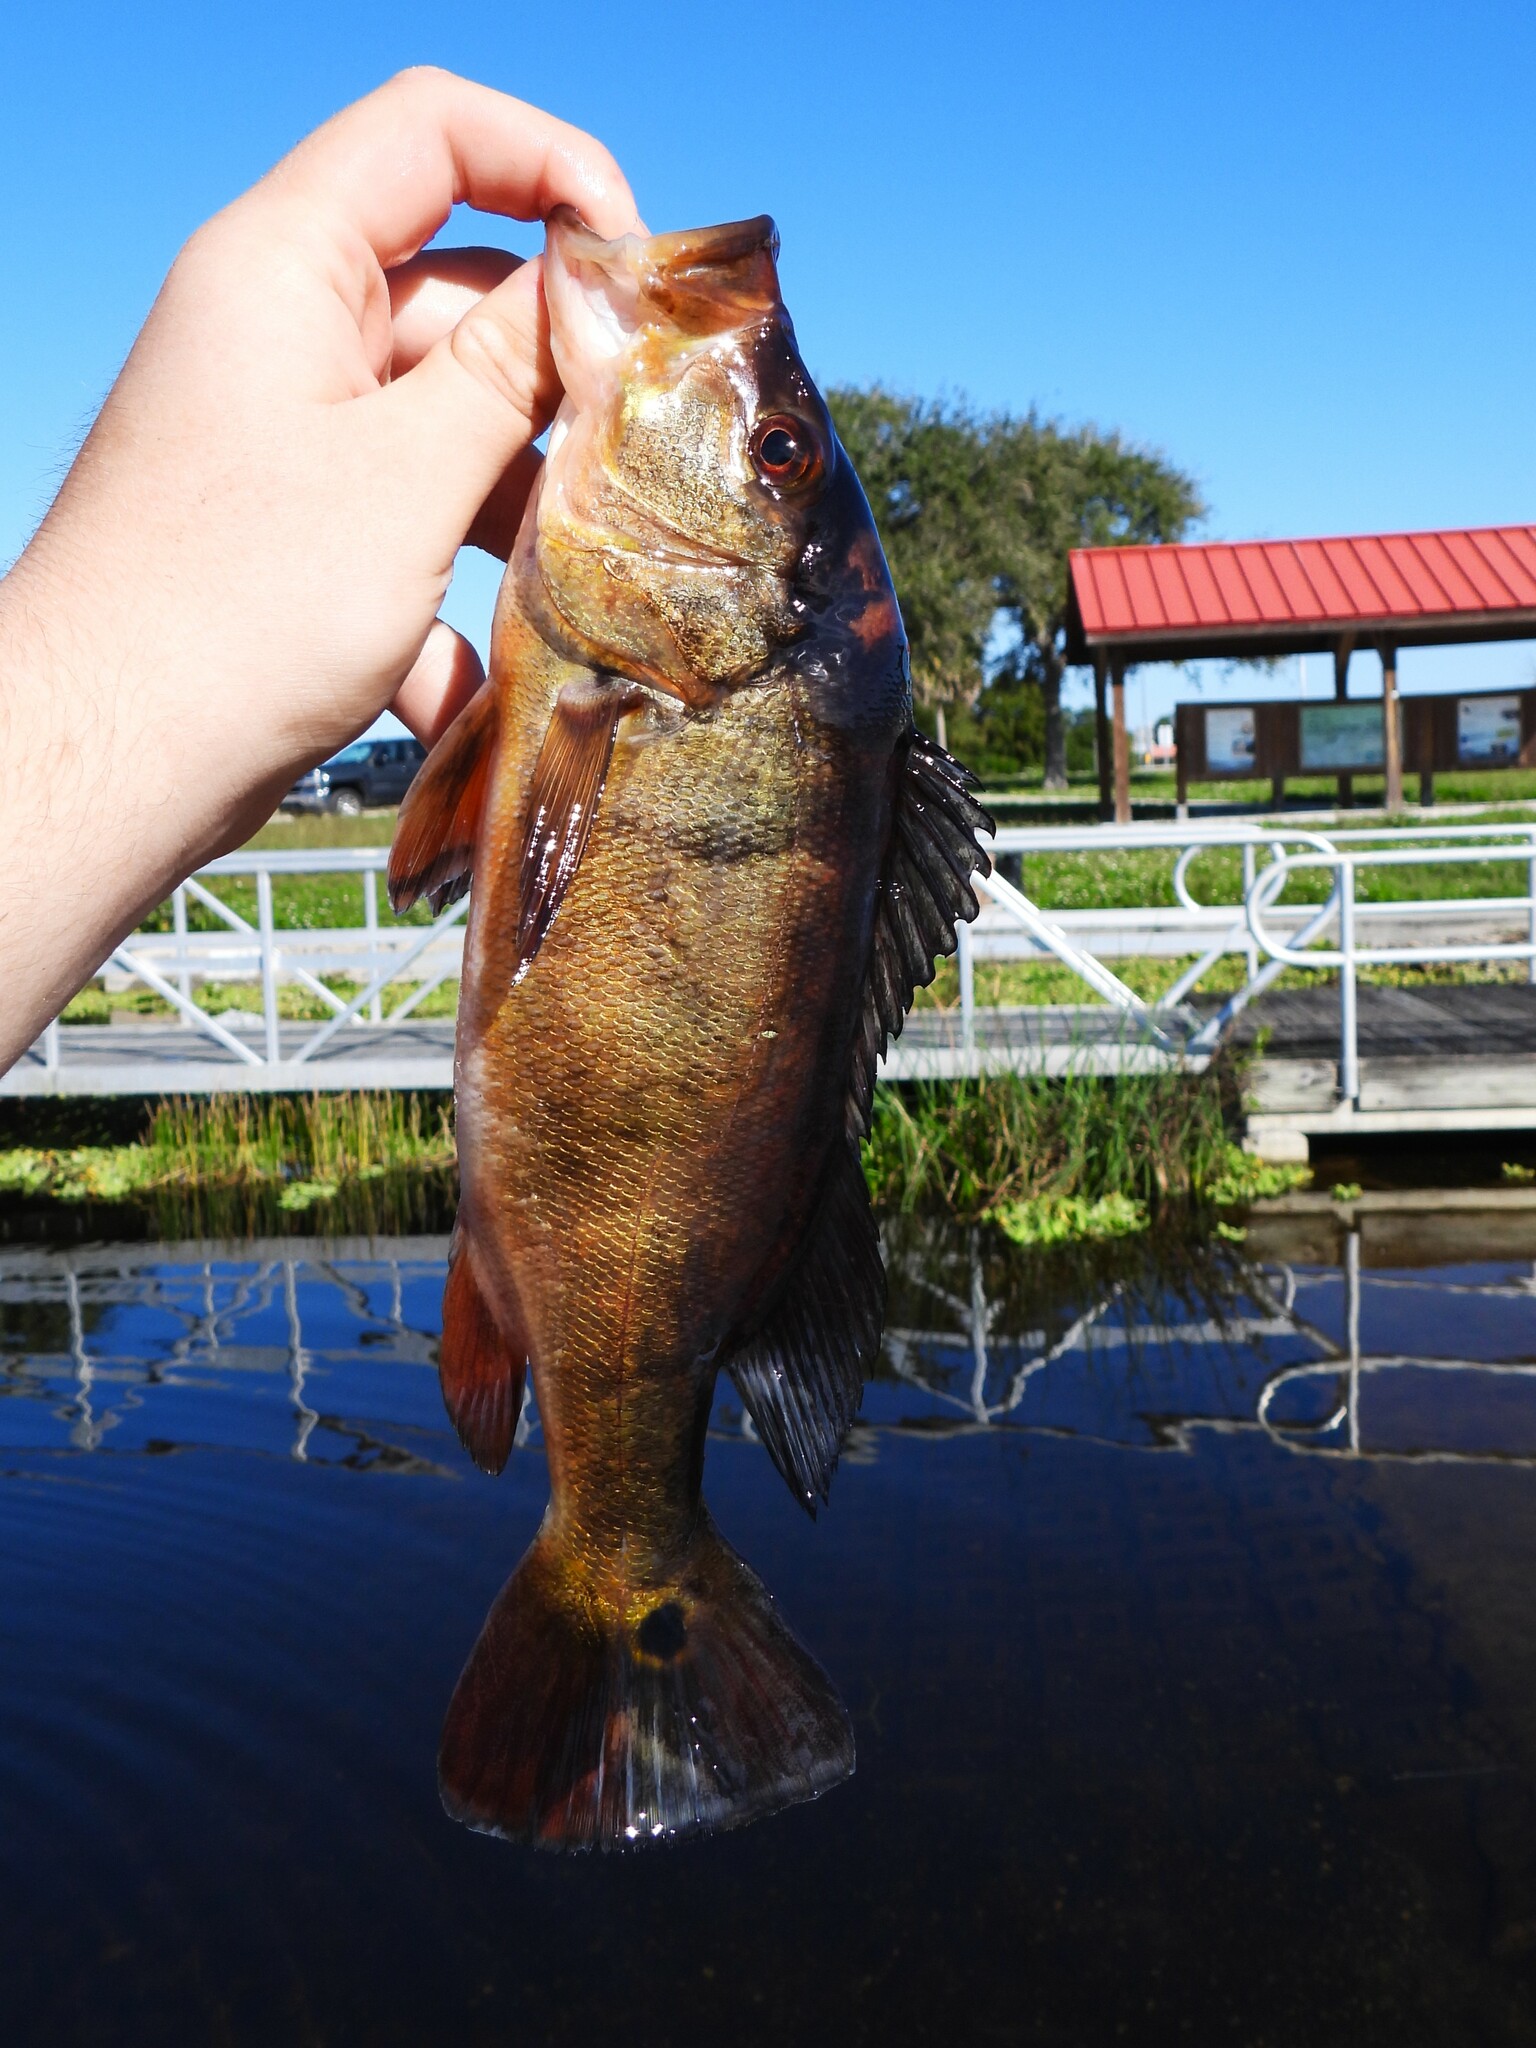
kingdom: Animalia
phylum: Chordata
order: Perciformes
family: Cichlidae
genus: Cichla
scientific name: Cichla ocellaris
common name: Peacock cichlid
